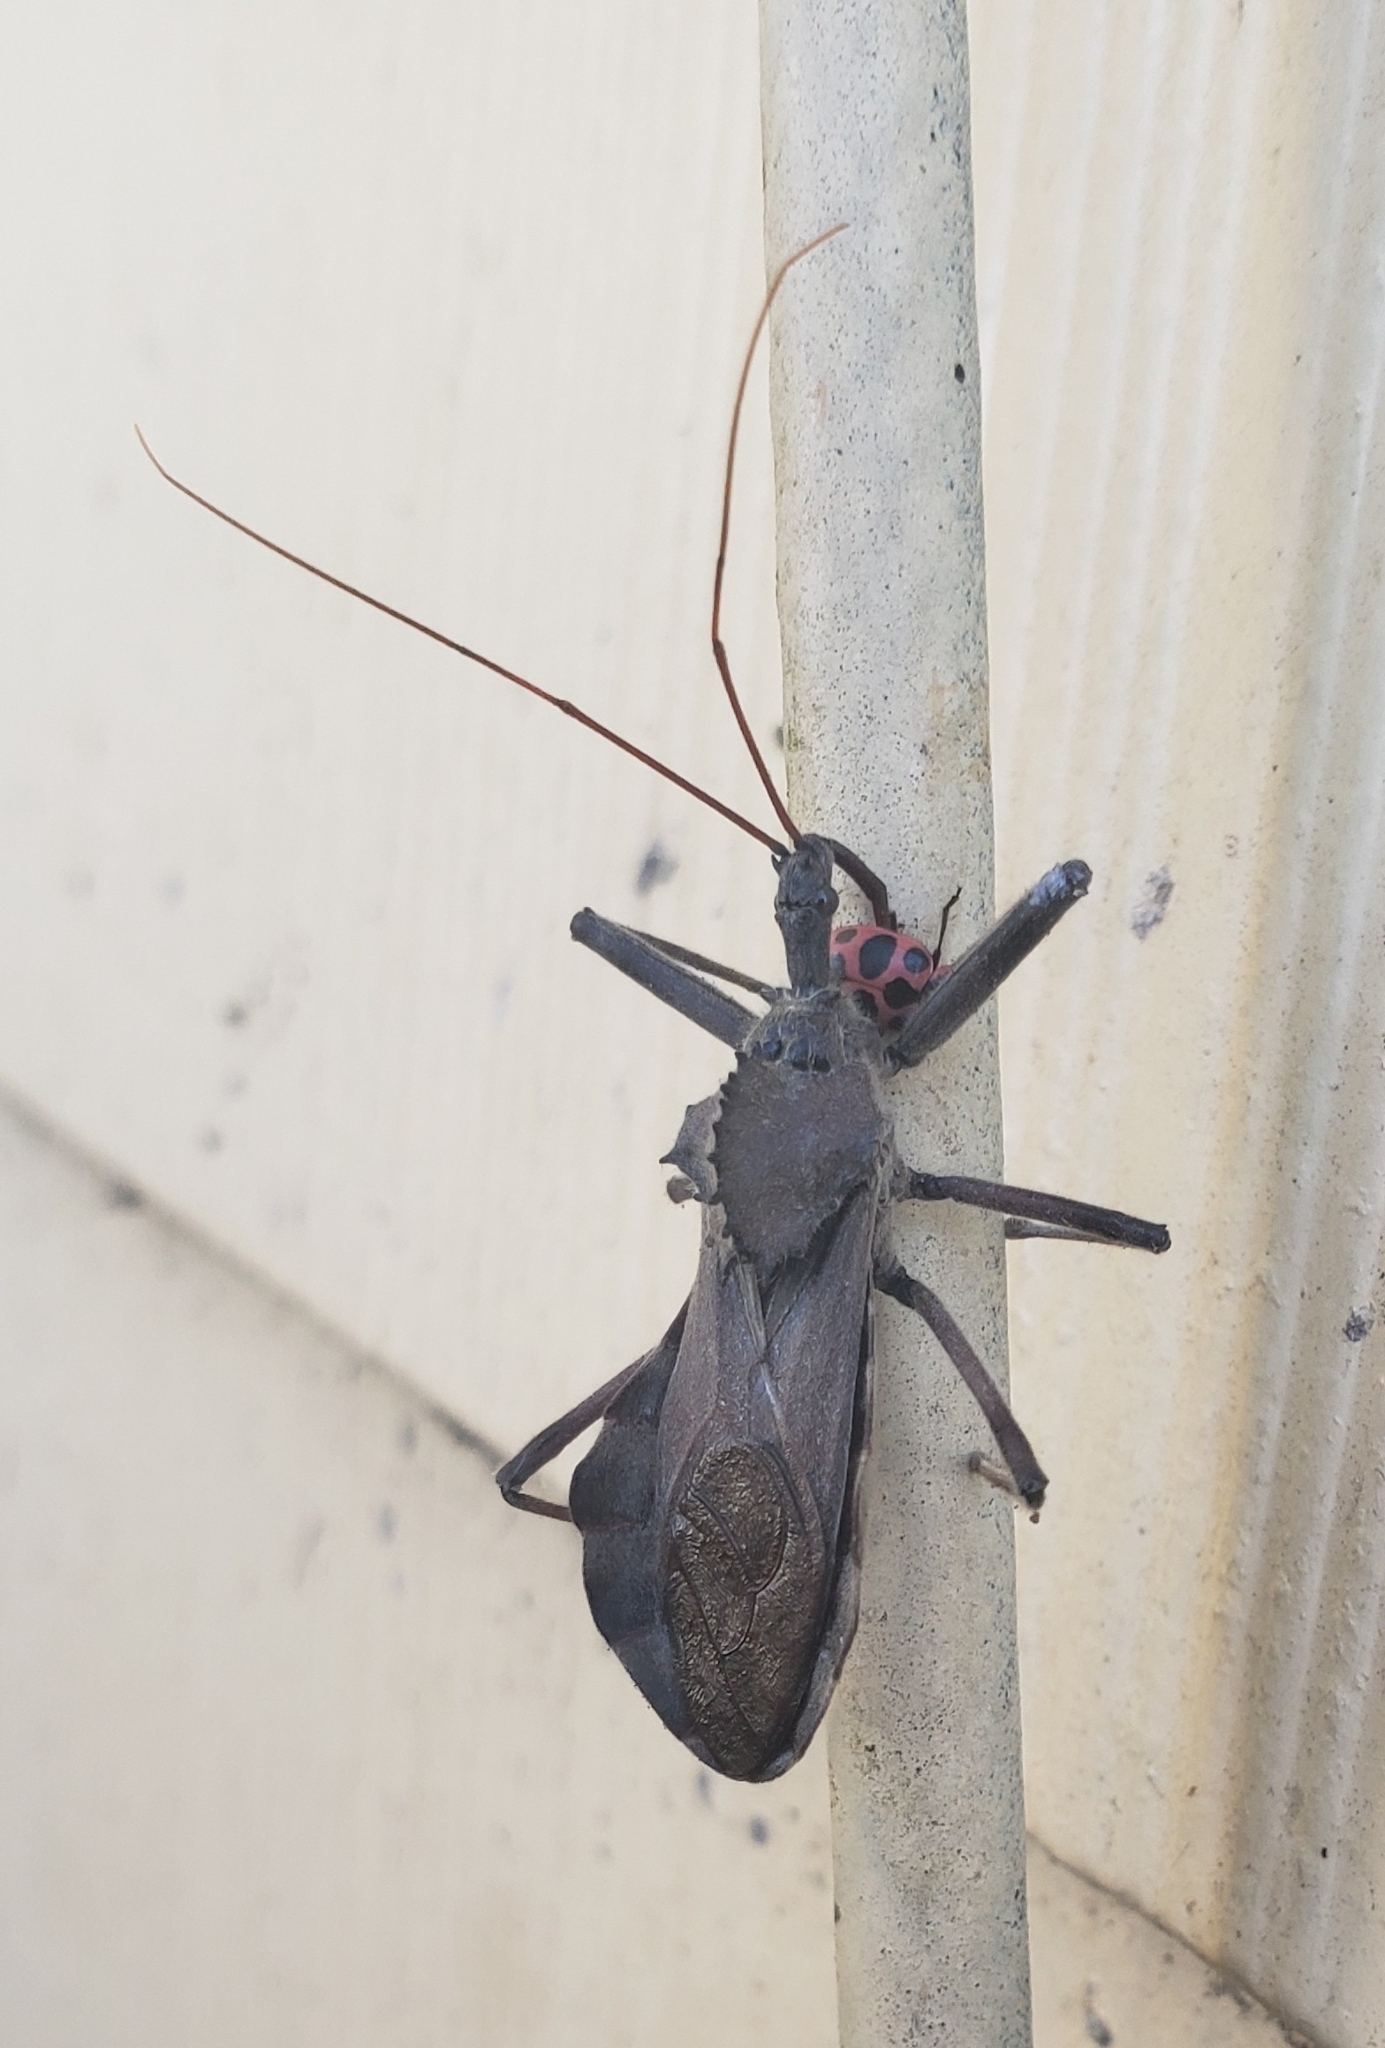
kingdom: Animalia
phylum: Arthropoda
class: Insecta
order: Hemiptera
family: Reduviidae
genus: Arilus
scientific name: Arilus cristatus
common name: North american wheel bug
